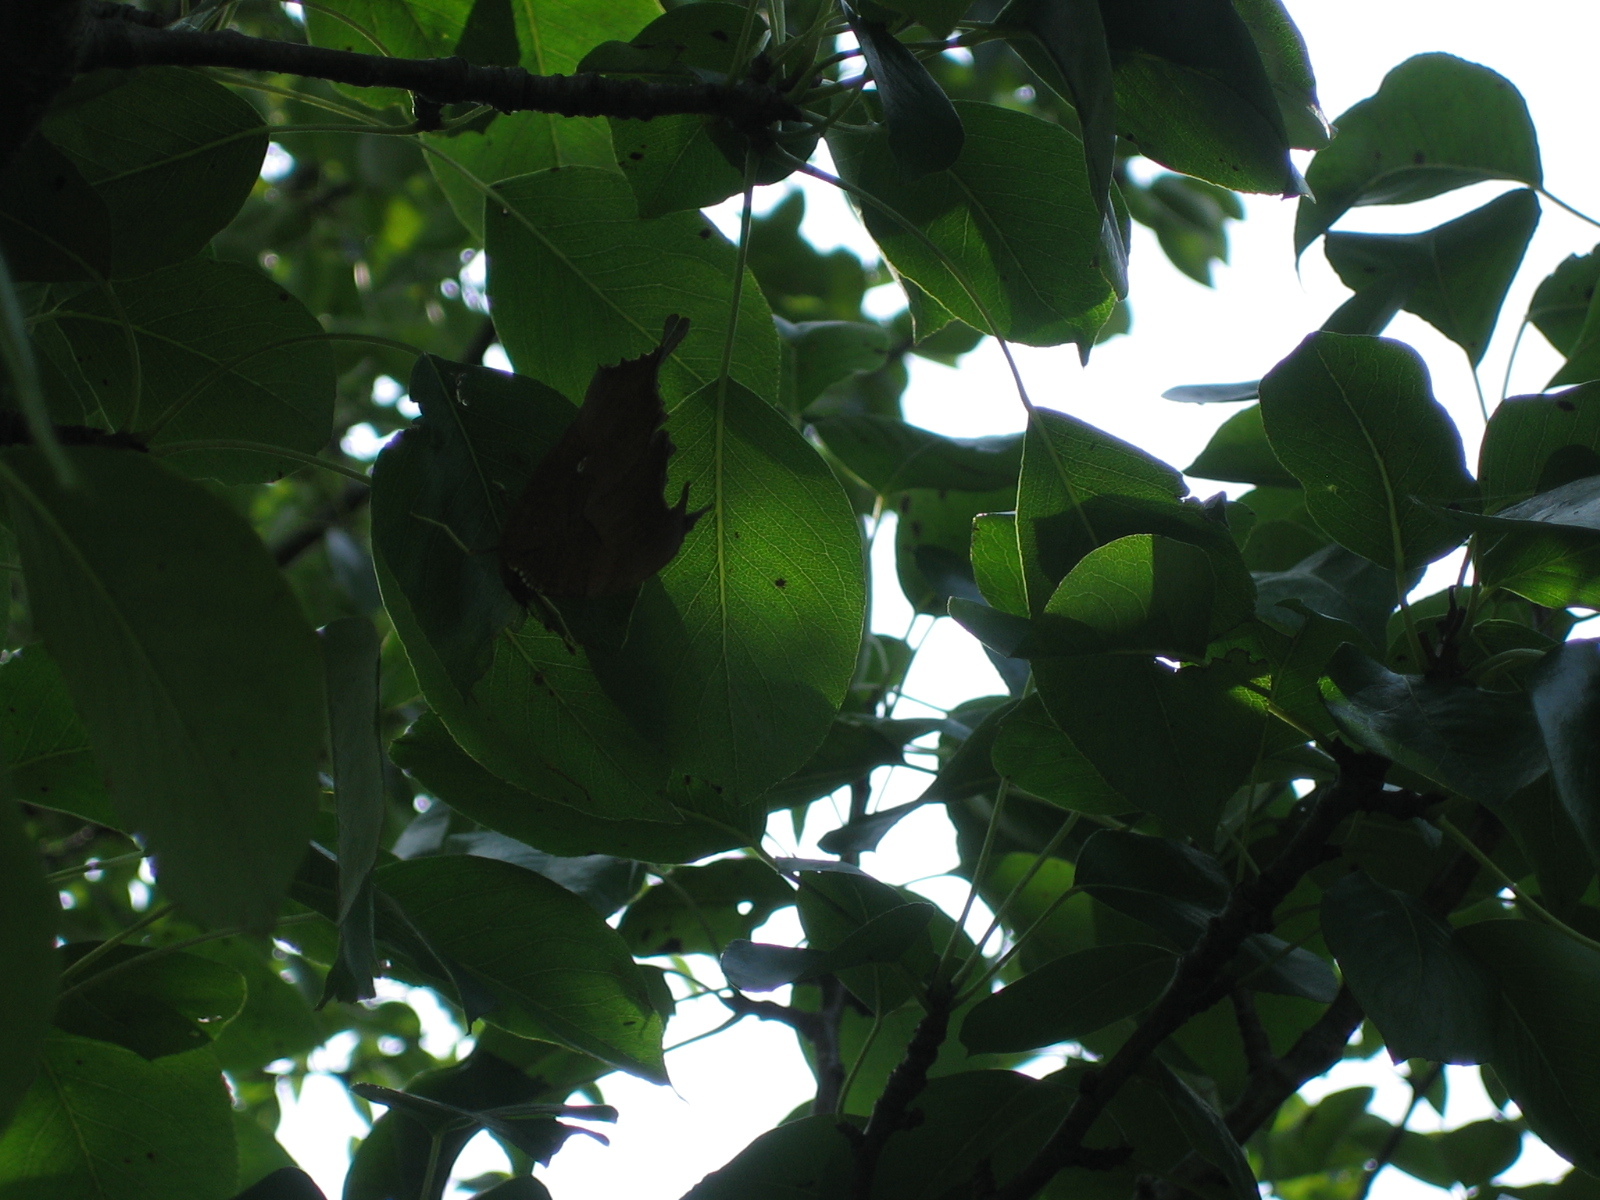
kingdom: Animalia
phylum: Arthropoda
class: Insecta
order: Lepidoptera
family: Nymphalidae
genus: Polygonia
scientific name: Polygonia interrogationis
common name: Question mark
